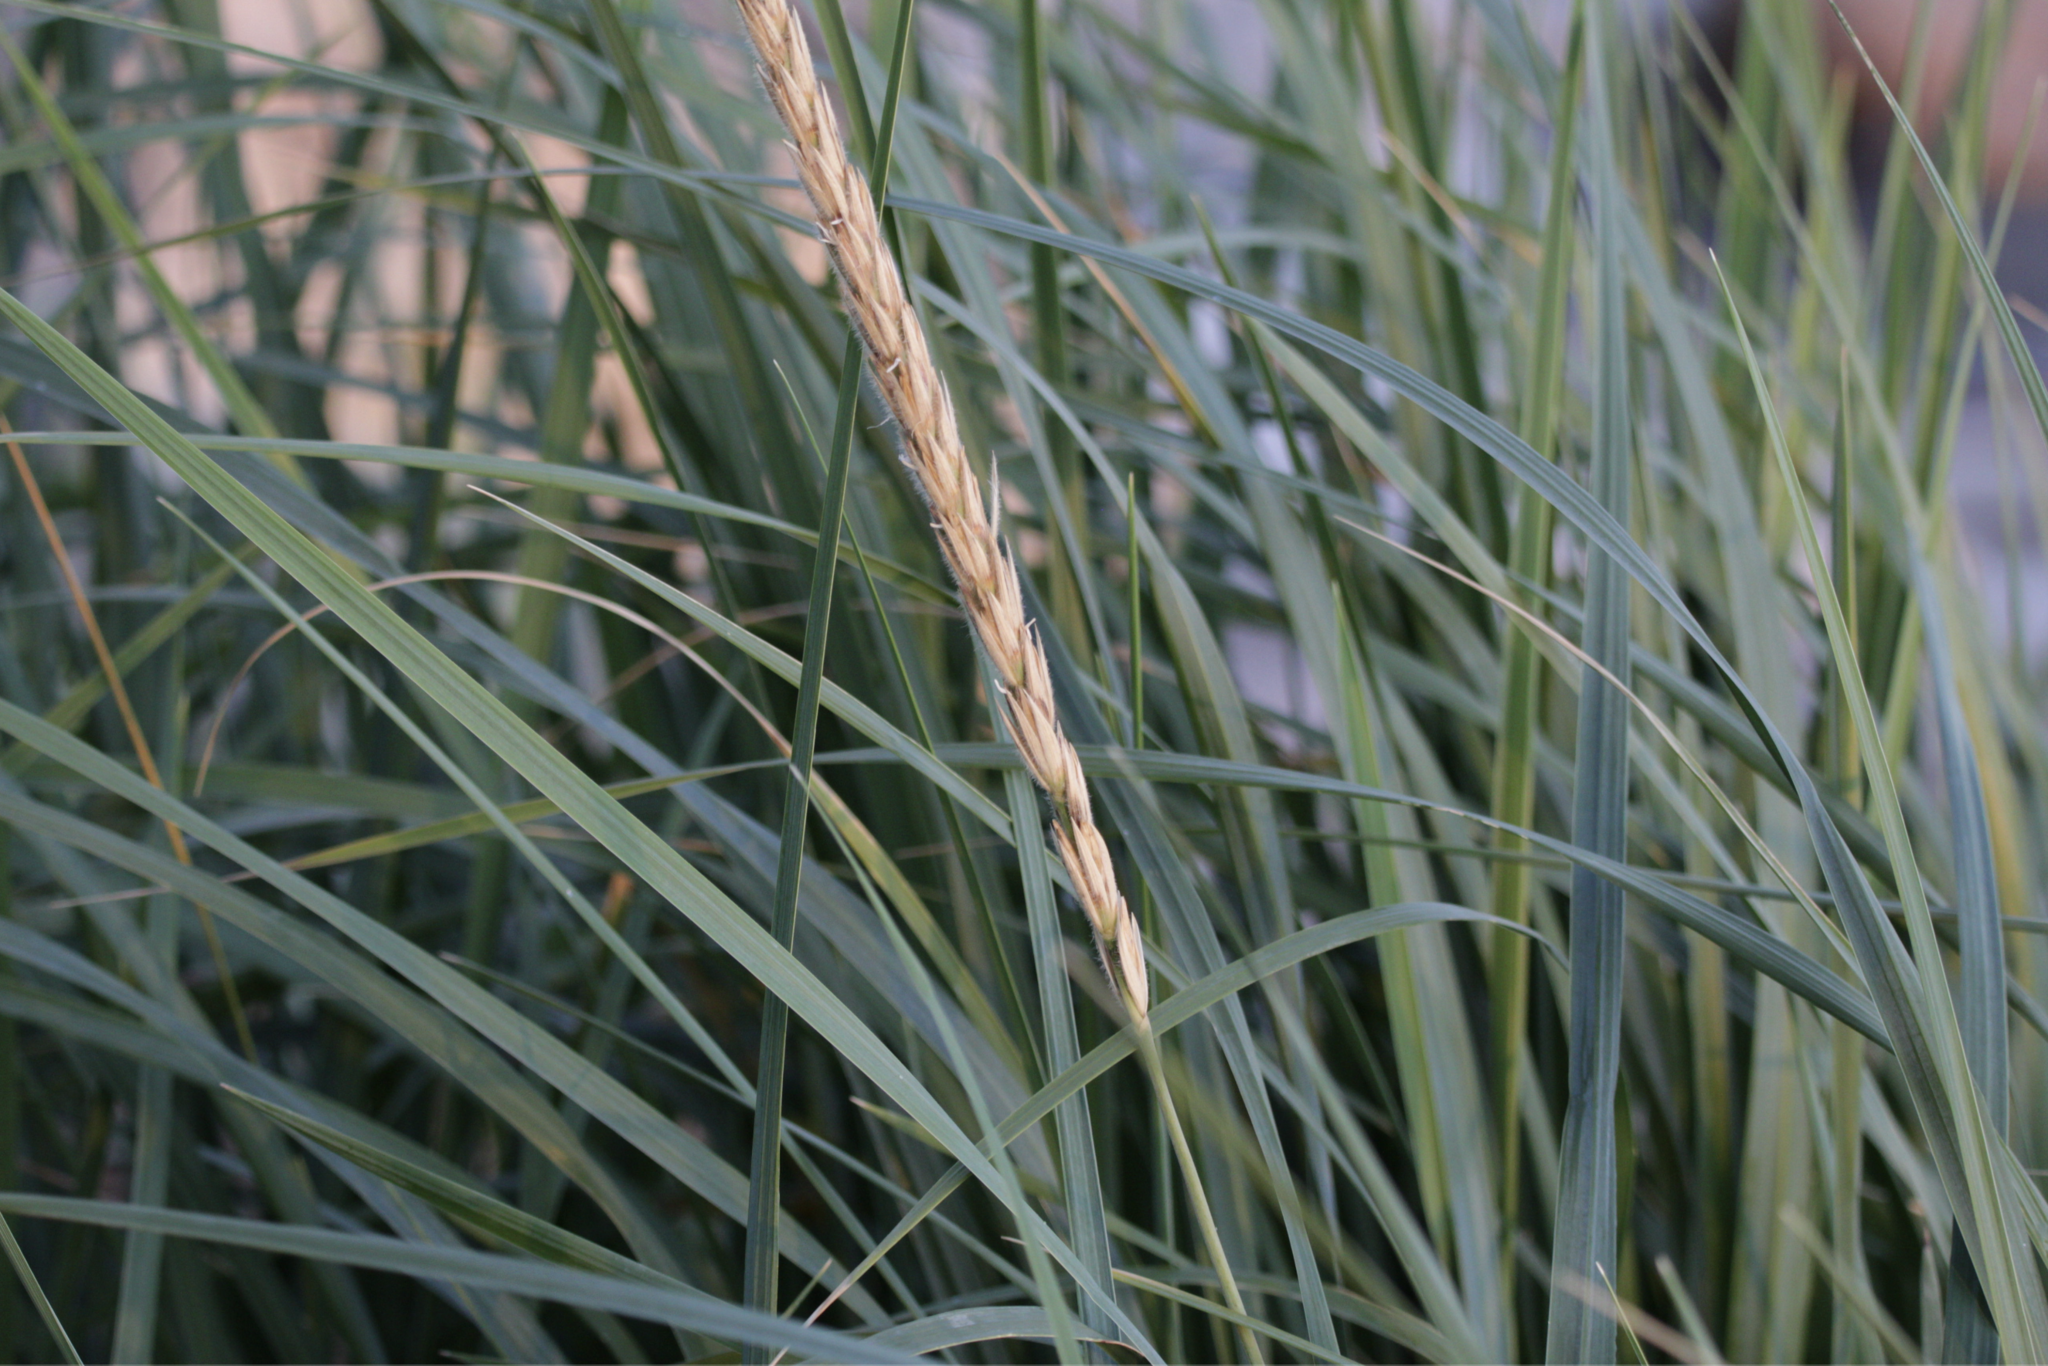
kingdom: Plantae
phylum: Tracheophyta
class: Liliopsida
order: Poales
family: Poaceae
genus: Leymus
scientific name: Leymus mollis
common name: American dune grass
